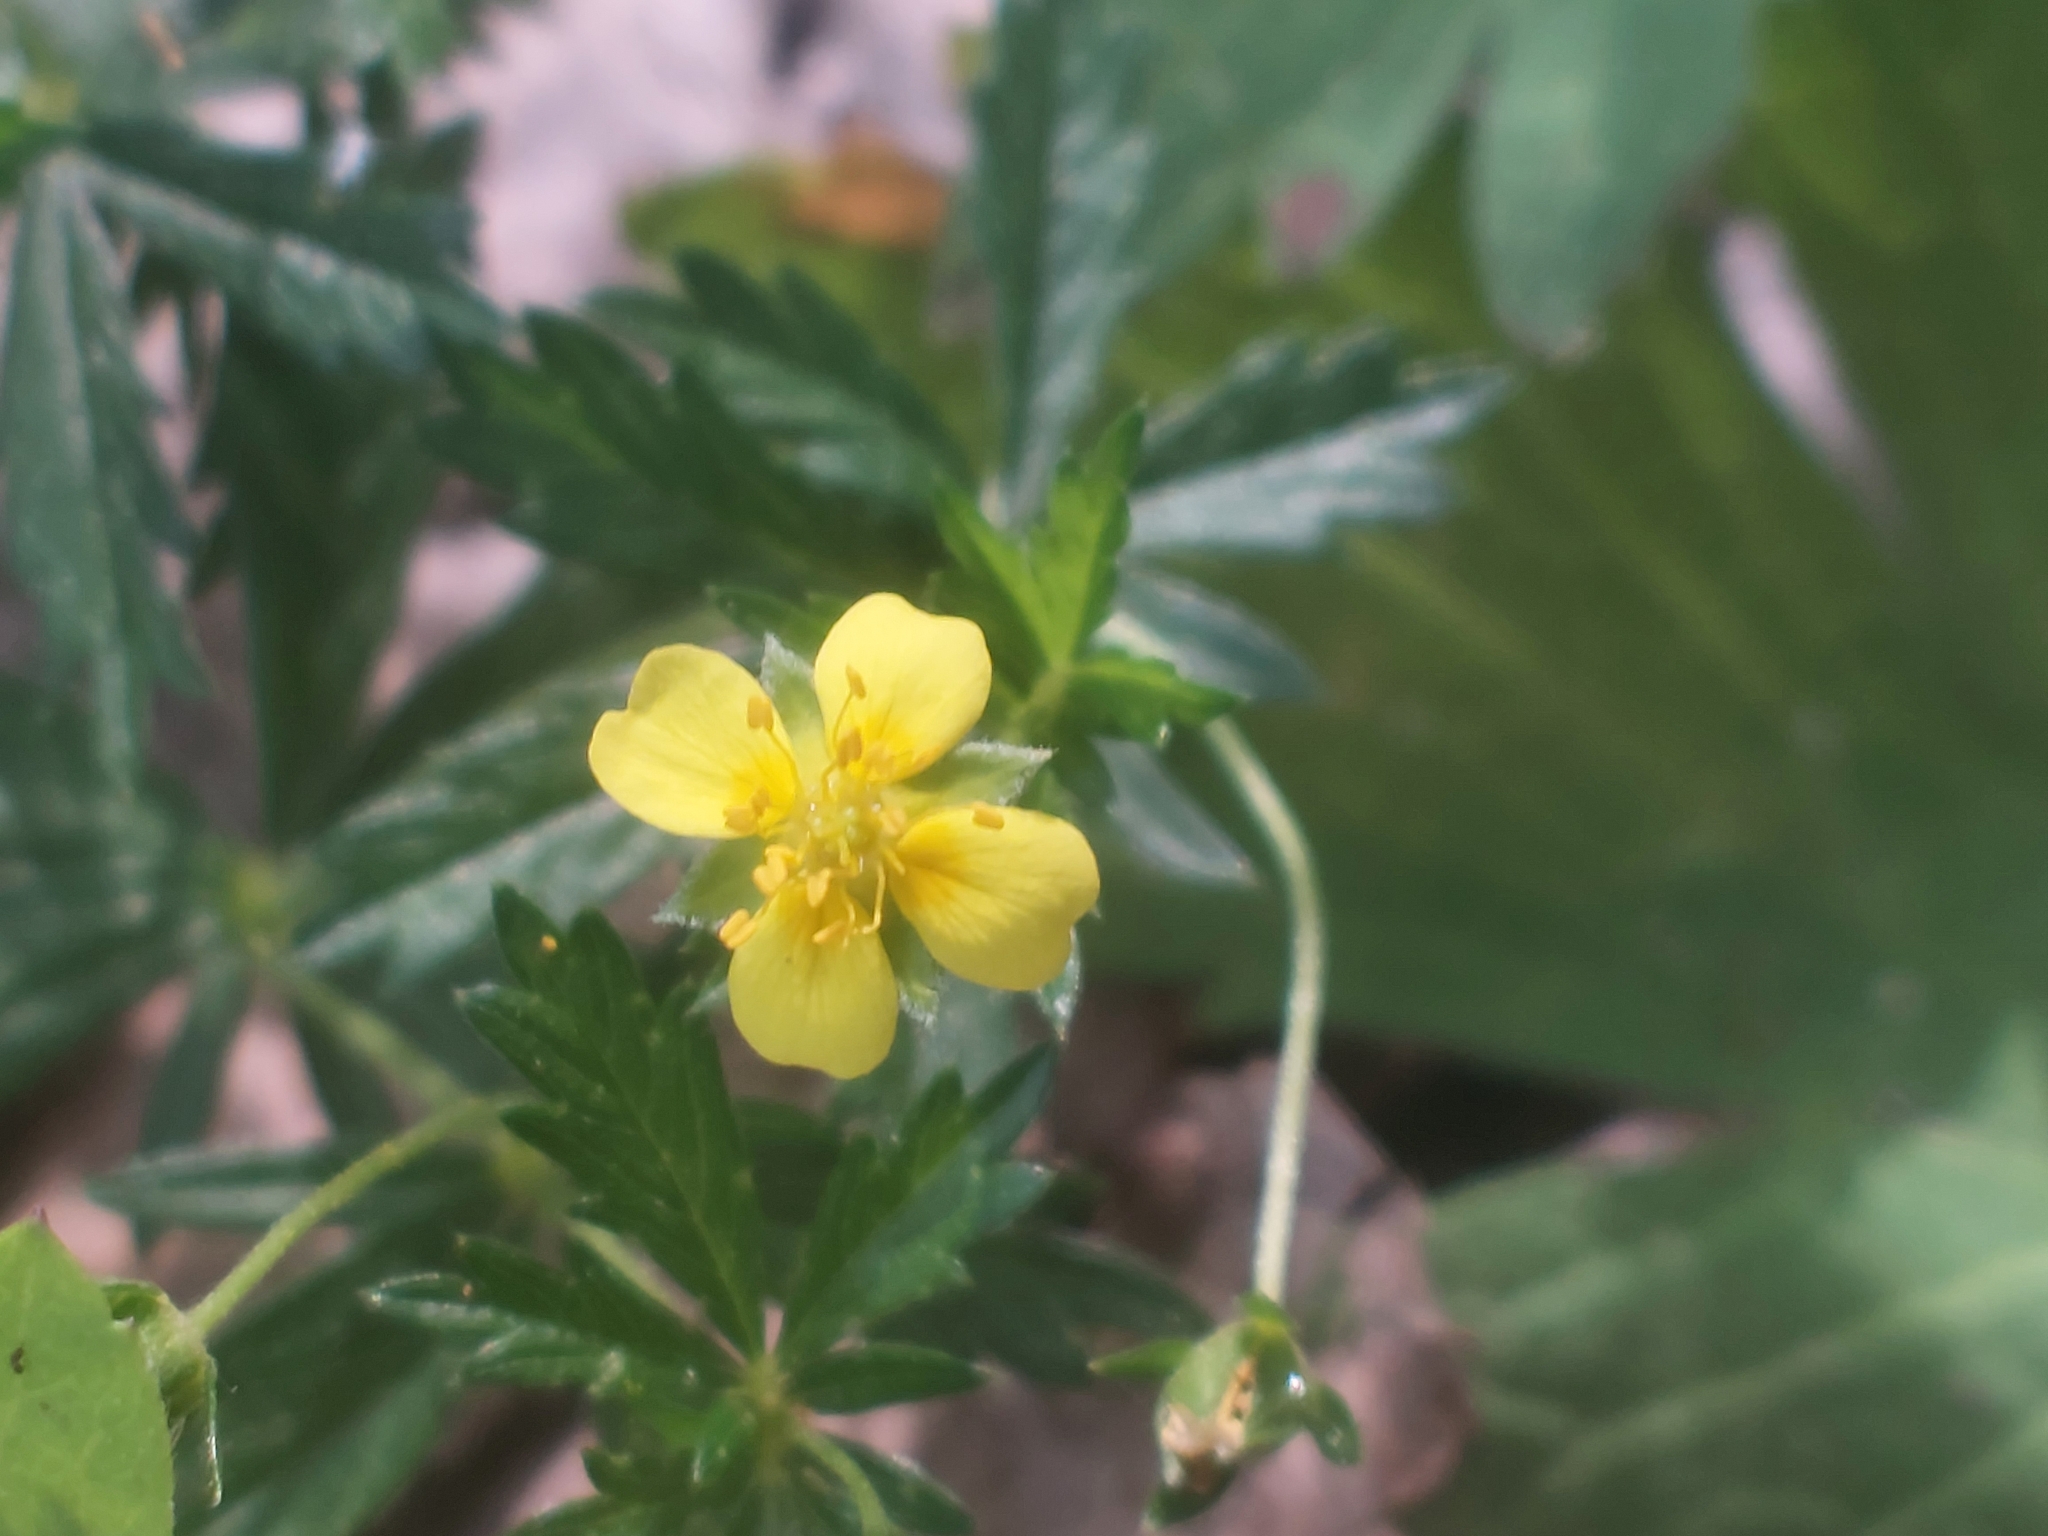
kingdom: Plantae
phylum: Tracheophyta
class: Magnoliopsida
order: Rosales
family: Rosaceae
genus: Potentilla
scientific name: Potentilla erecta
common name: Tormentil
